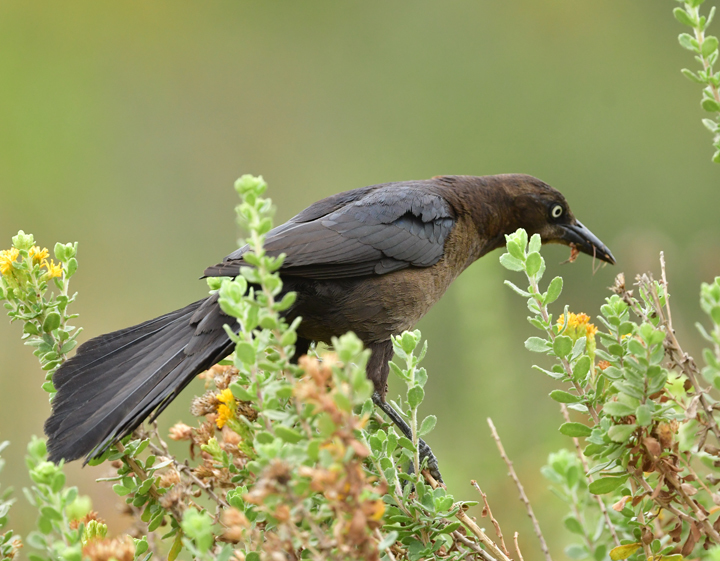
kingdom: Animalia
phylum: Chordata
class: Aves
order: Passeriformes
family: Icteridae
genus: Quiscalus
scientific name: Quiscalus mexicanus
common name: Great-tailed grackle
